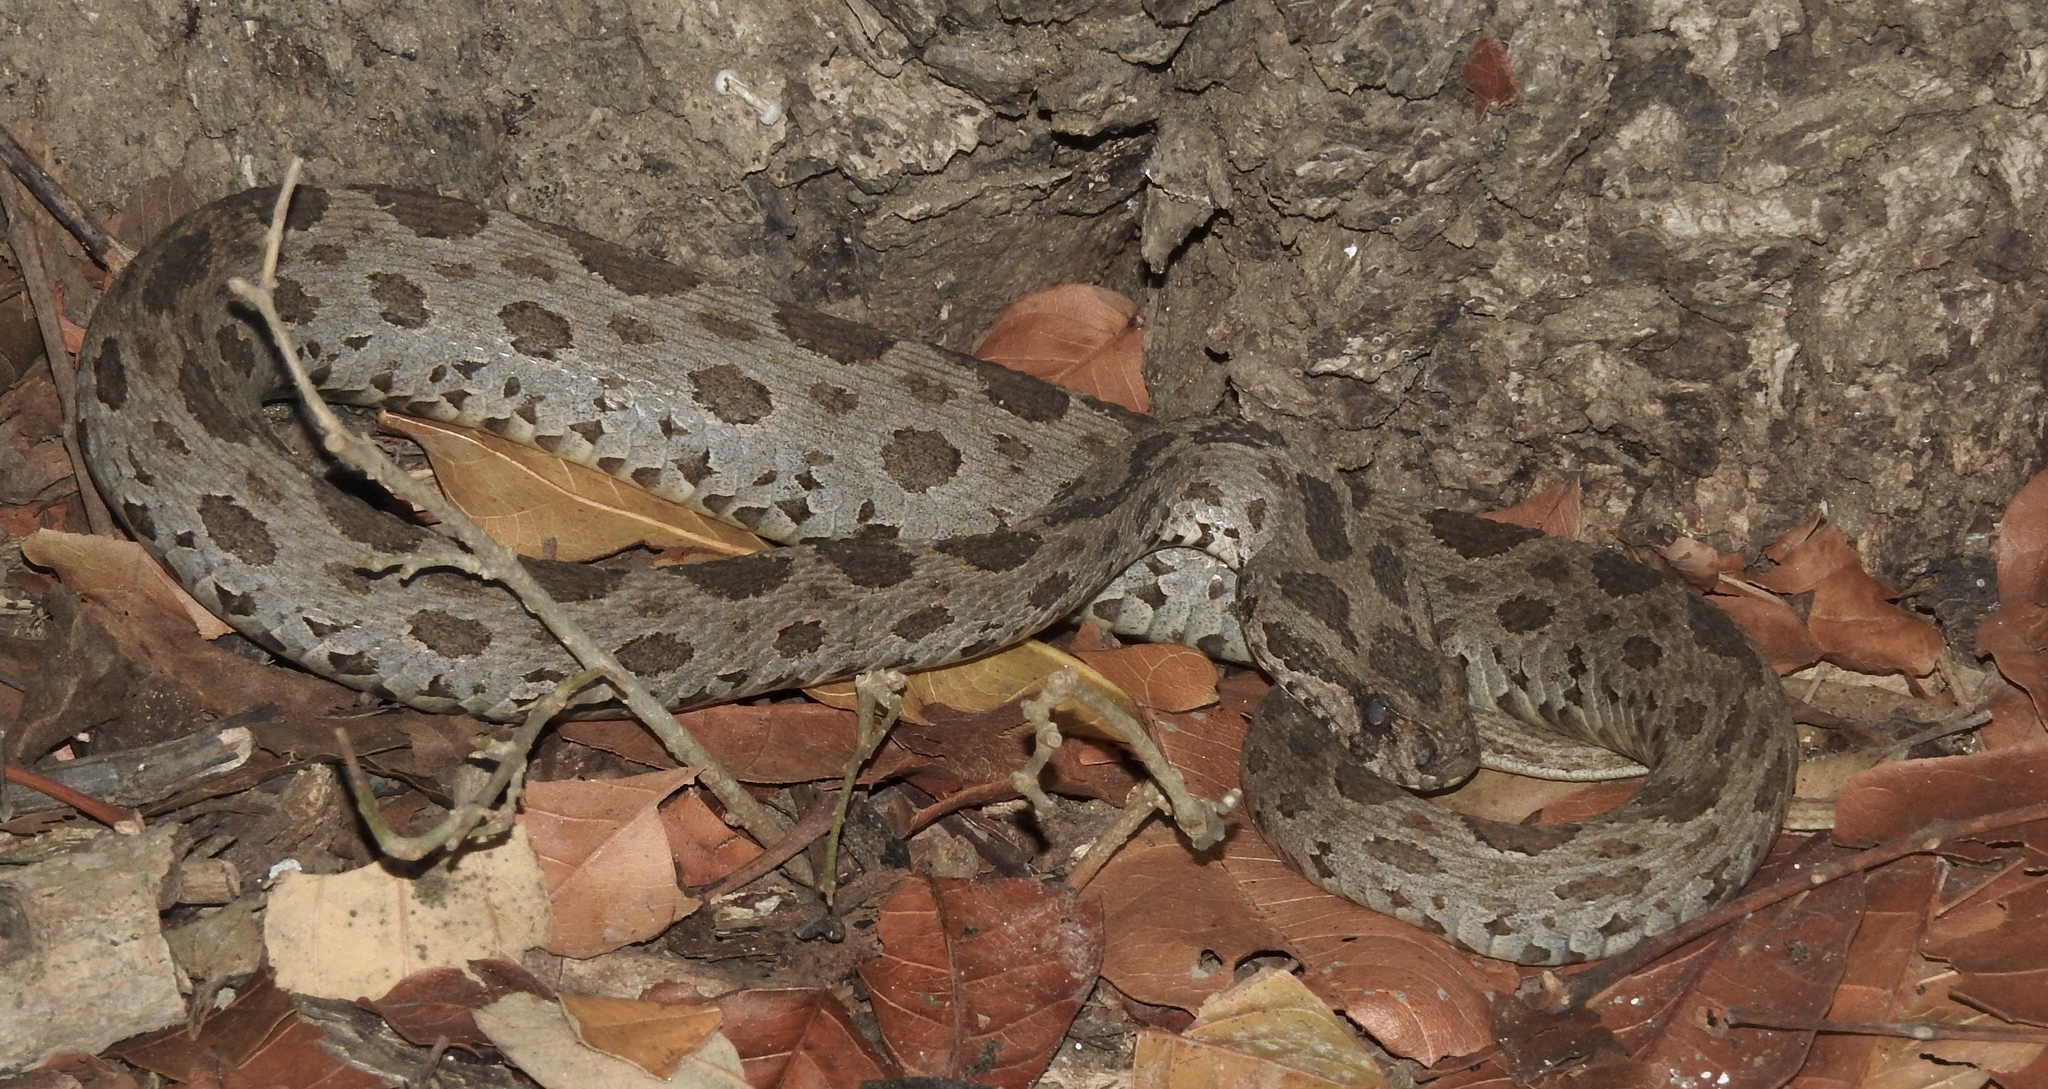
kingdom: Animalia
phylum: Chordata
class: Squamata
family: Viperidae
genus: Daboia
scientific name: Daboia siamensis
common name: Eastern russell's viper
